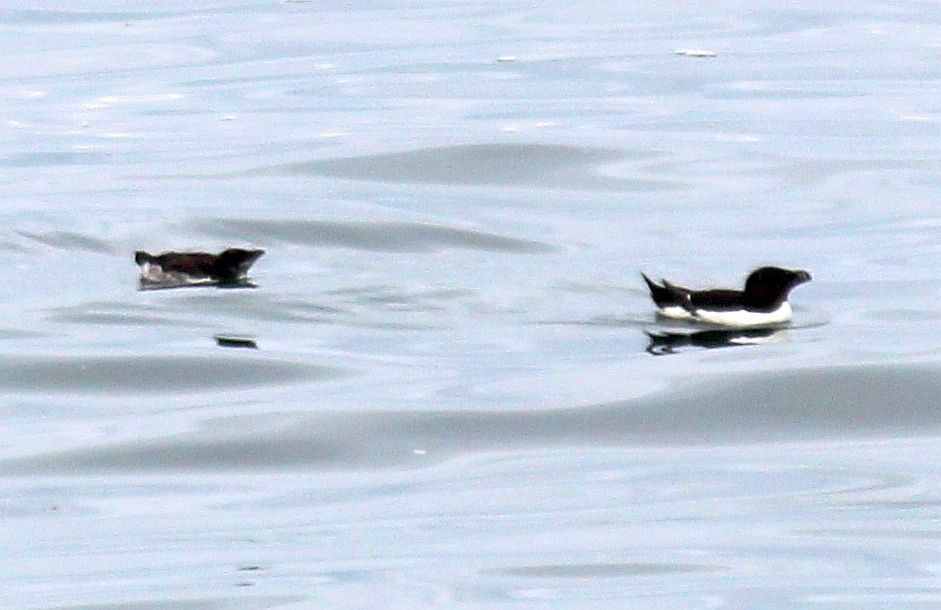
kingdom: Animalia
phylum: Chordata
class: Aves
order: Charadriiformes
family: Alcidae
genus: Alca
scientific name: Alca torda
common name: Razorbill
